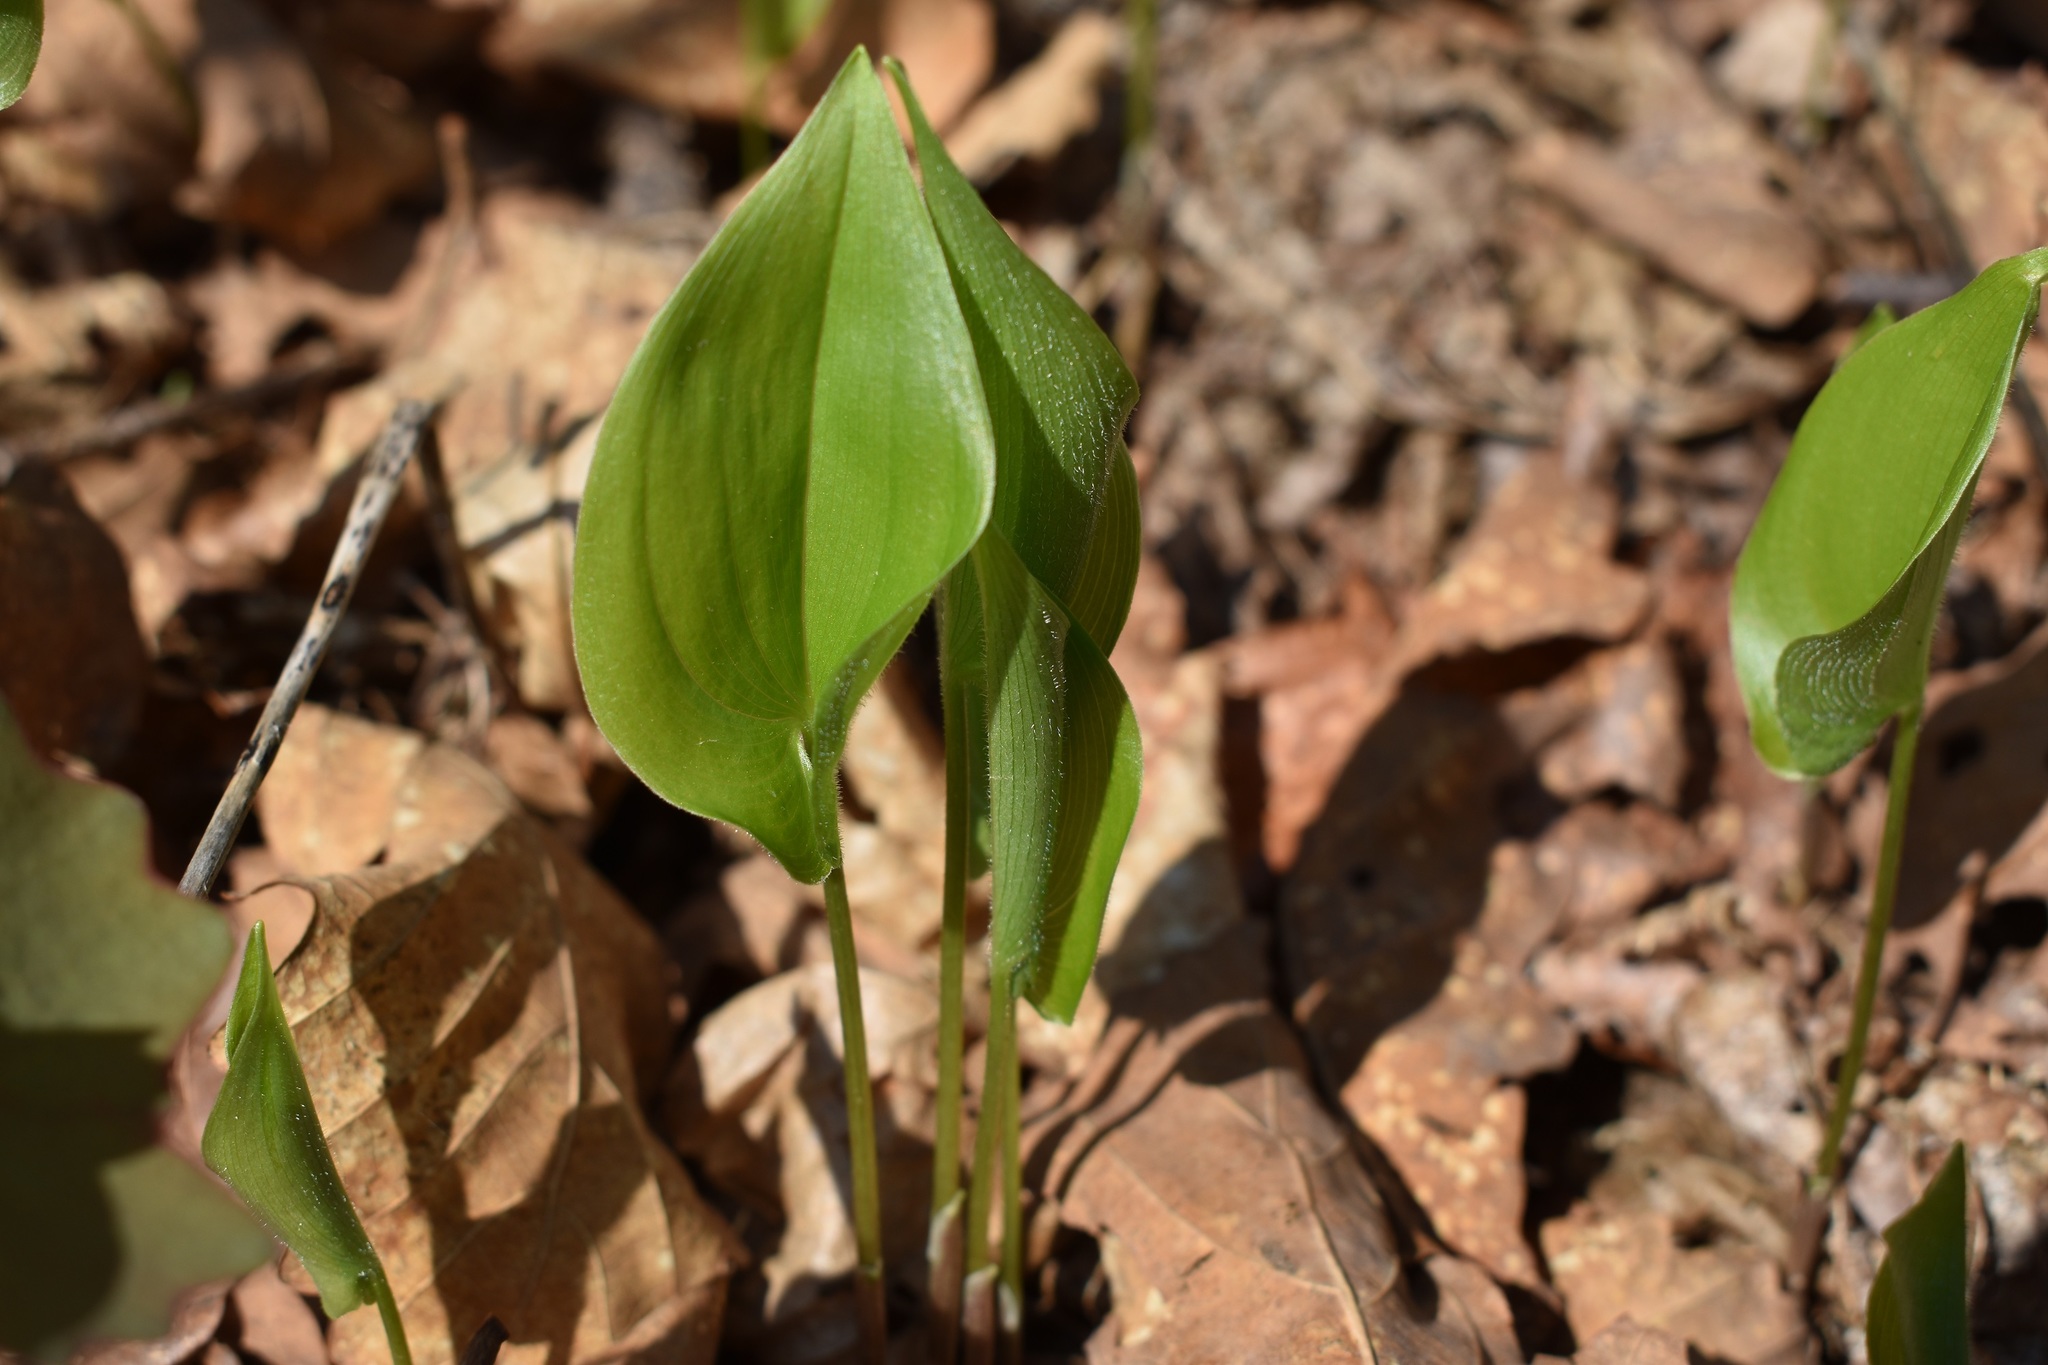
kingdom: Plantae
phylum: Tracheophyta
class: Liliopsida
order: Asparagales
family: Asparagaceae
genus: Maianthemum
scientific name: Maianthemum bifolium
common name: May lily
